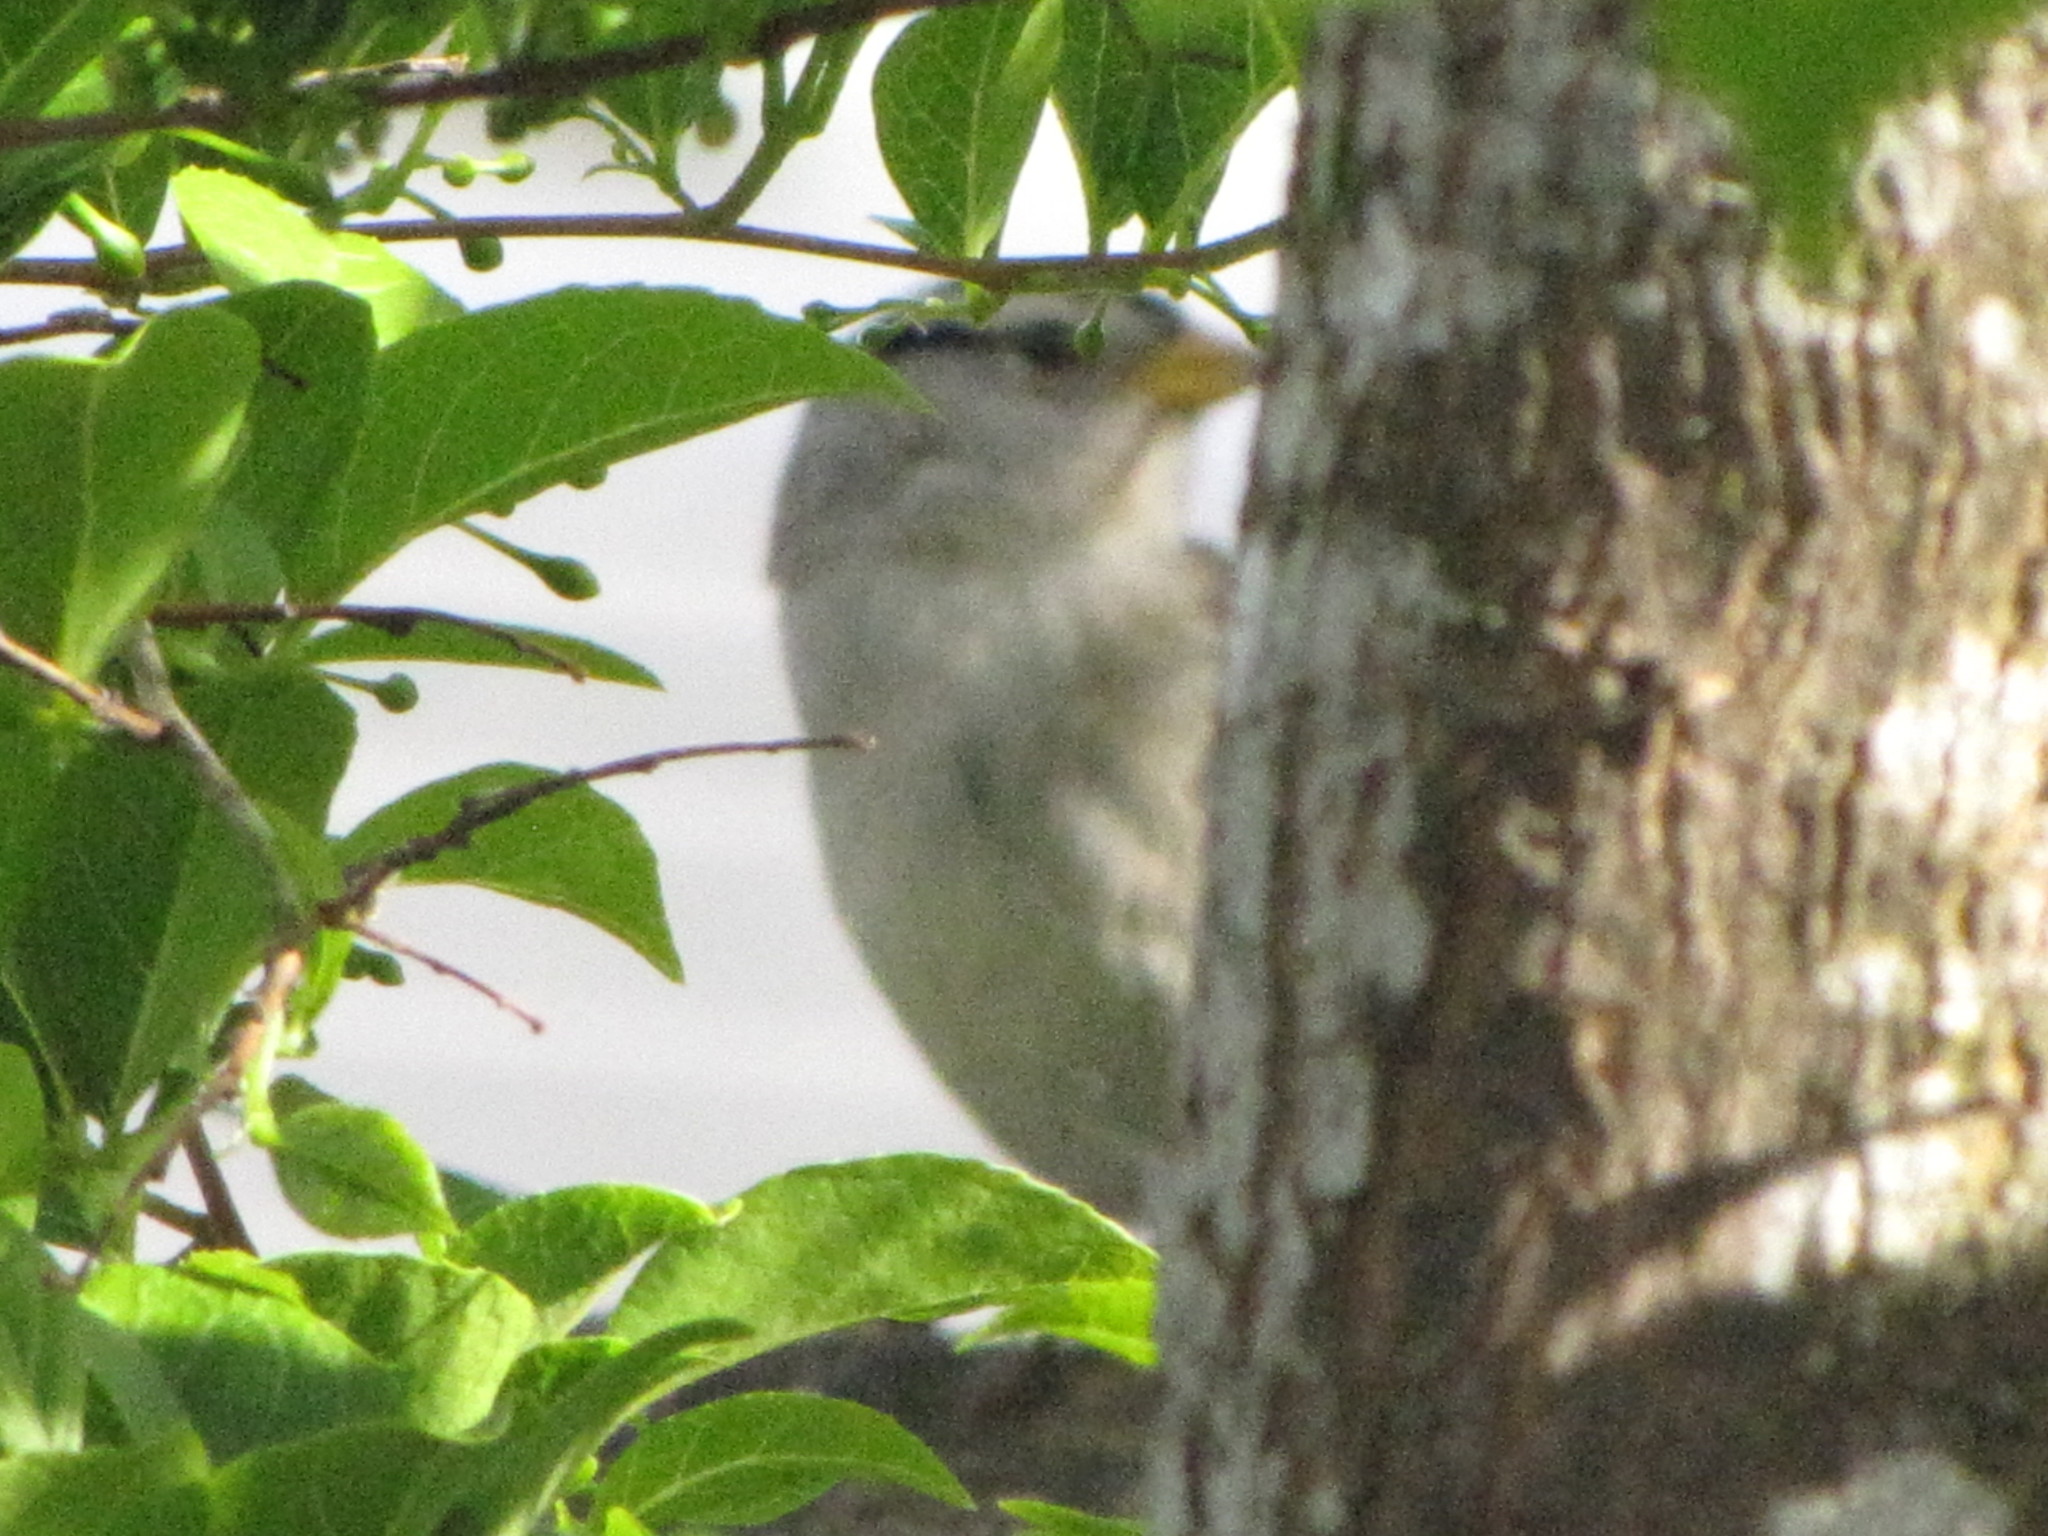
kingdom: Animalia
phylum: Chordata
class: Aves
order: Passeriformes
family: Passerellidae
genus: Zonotrichia
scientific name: Zonotrichia leucophrys
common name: White-crowned sparrow
